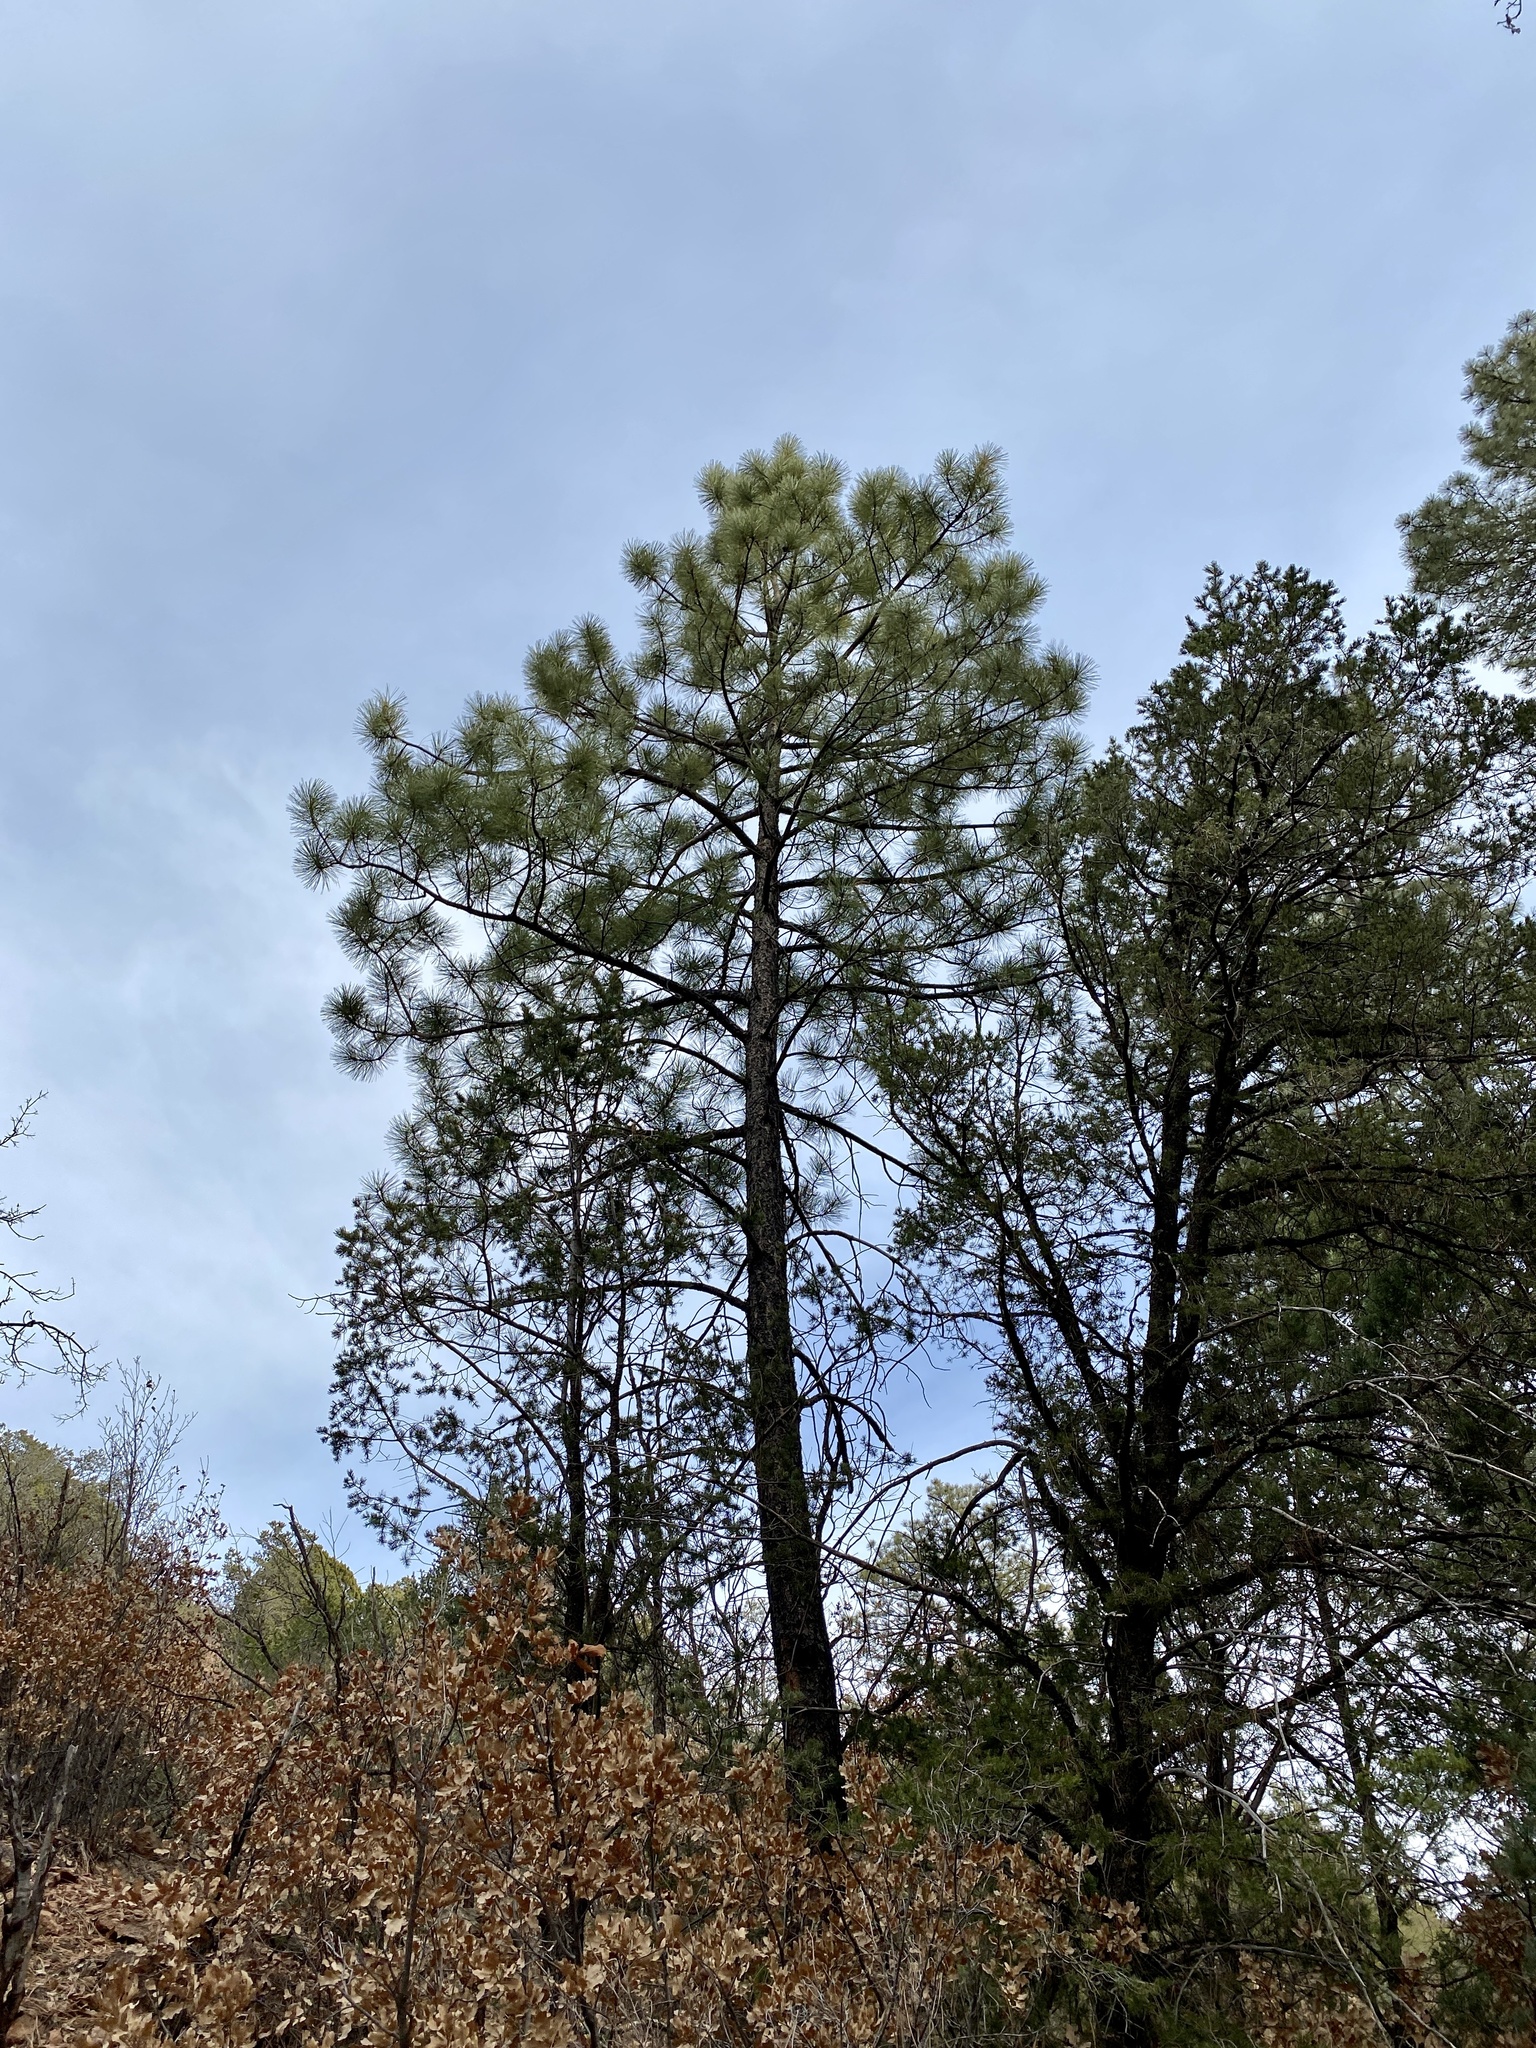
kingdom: Plantae
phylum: Tracheophyta
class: Pinopsida
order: Pinales
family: Pinaceae
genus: Pinus
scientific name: Pinus ponderosa
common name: Western yellow-pine
